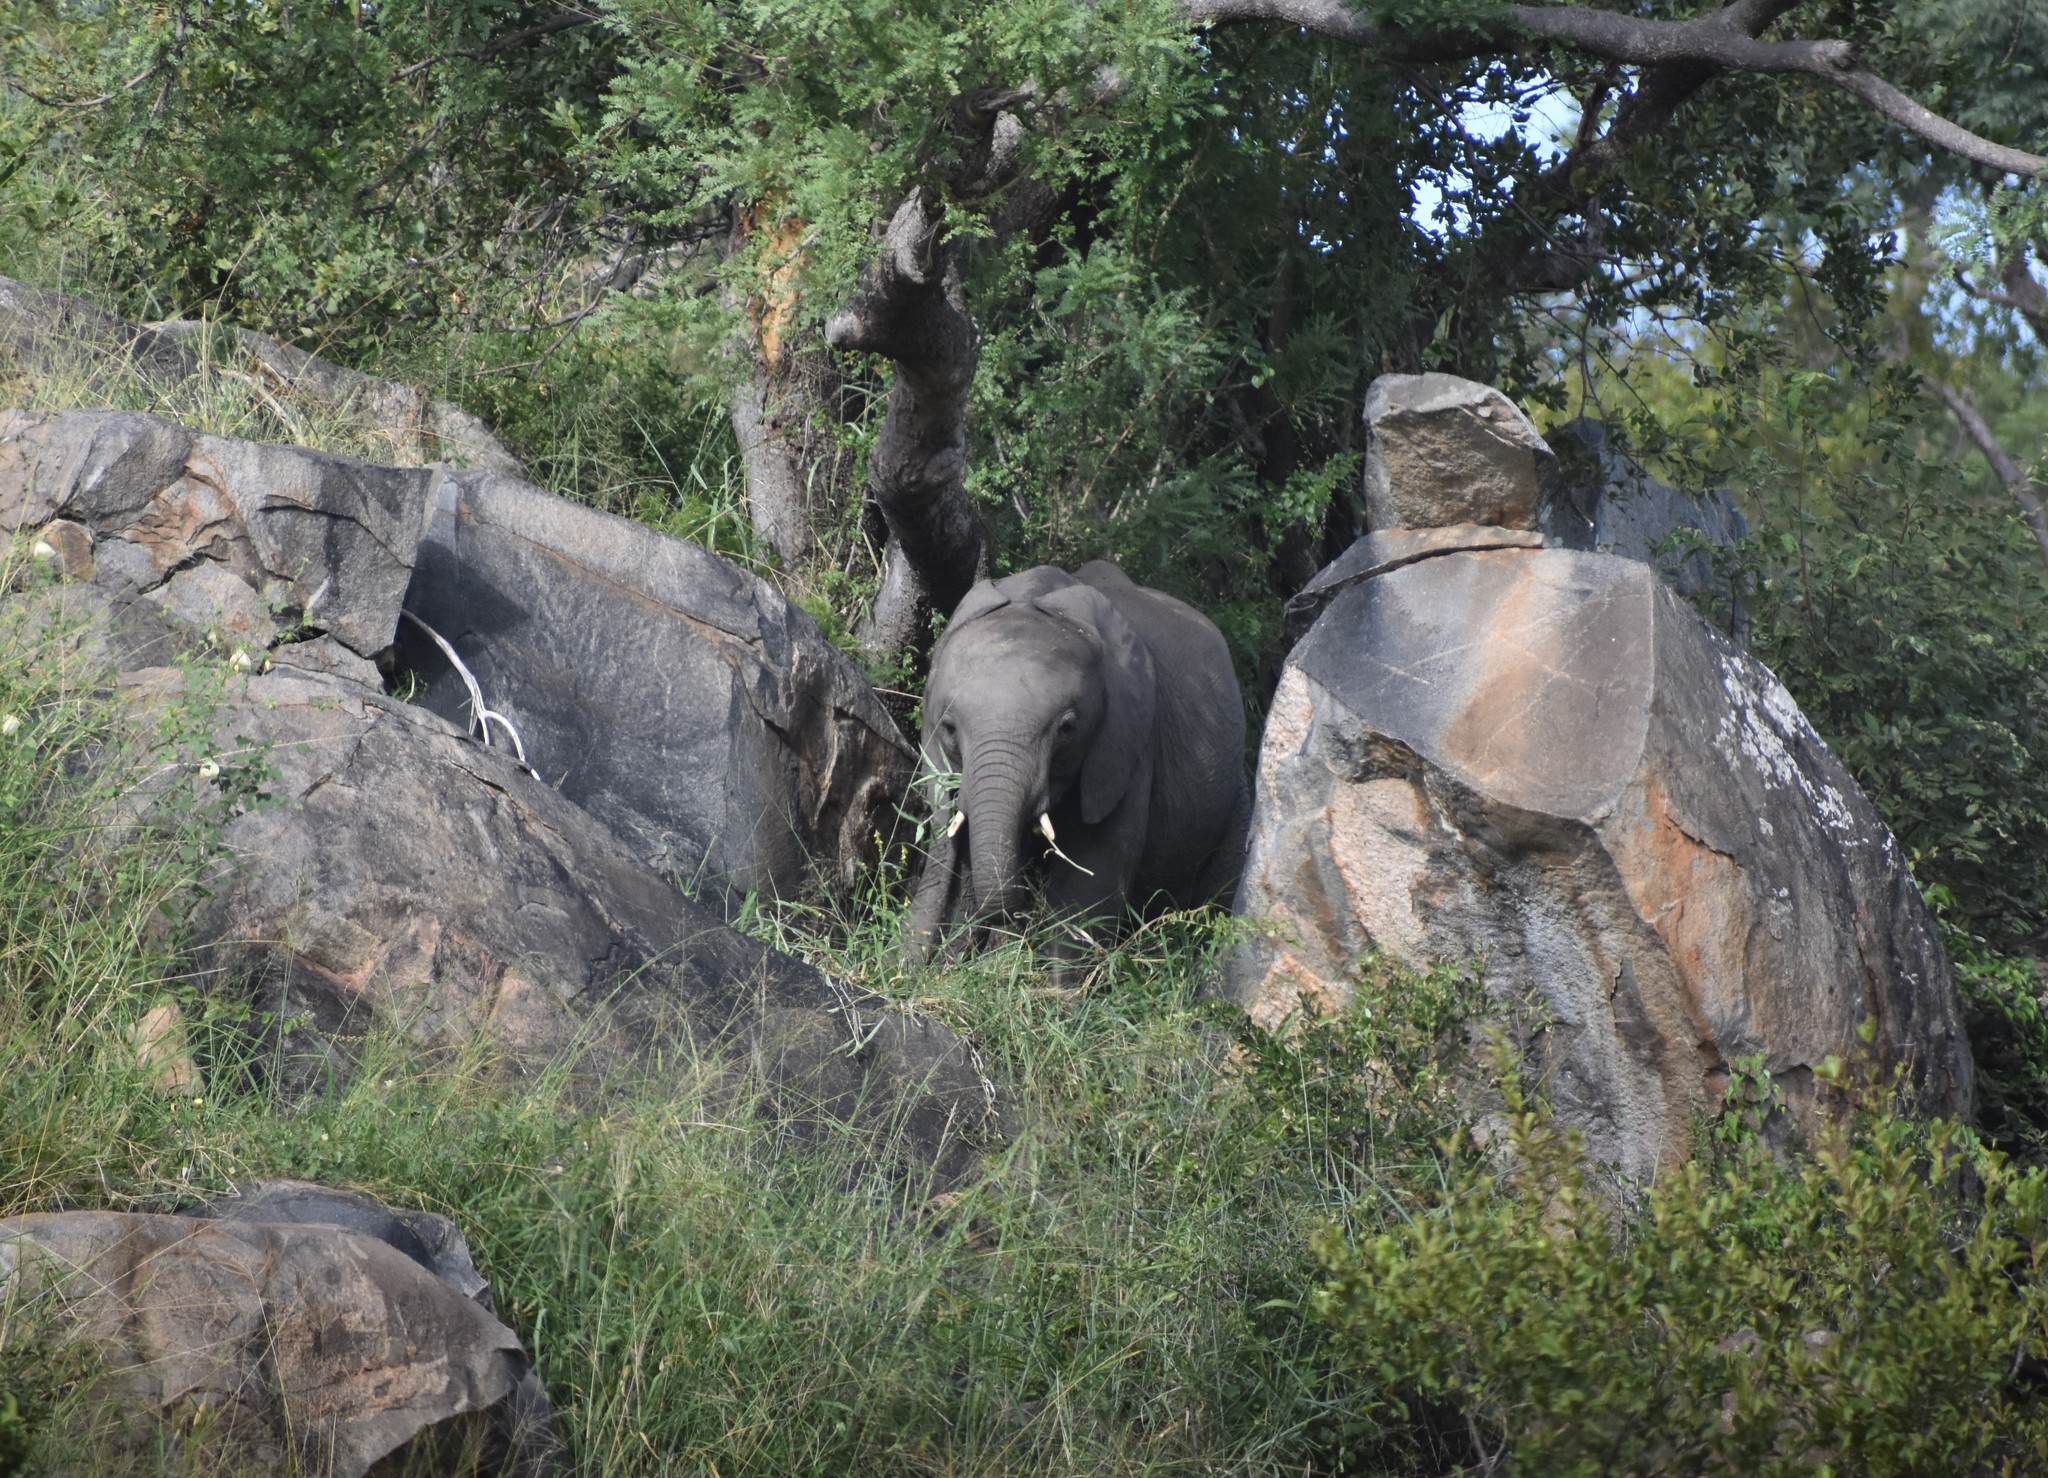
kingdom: Animalia
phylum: Chordata
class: Mammalia
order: Proboscidea
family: Elephantidae
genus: Loxodonta
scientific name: Loxodonta africana
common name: African elephant
